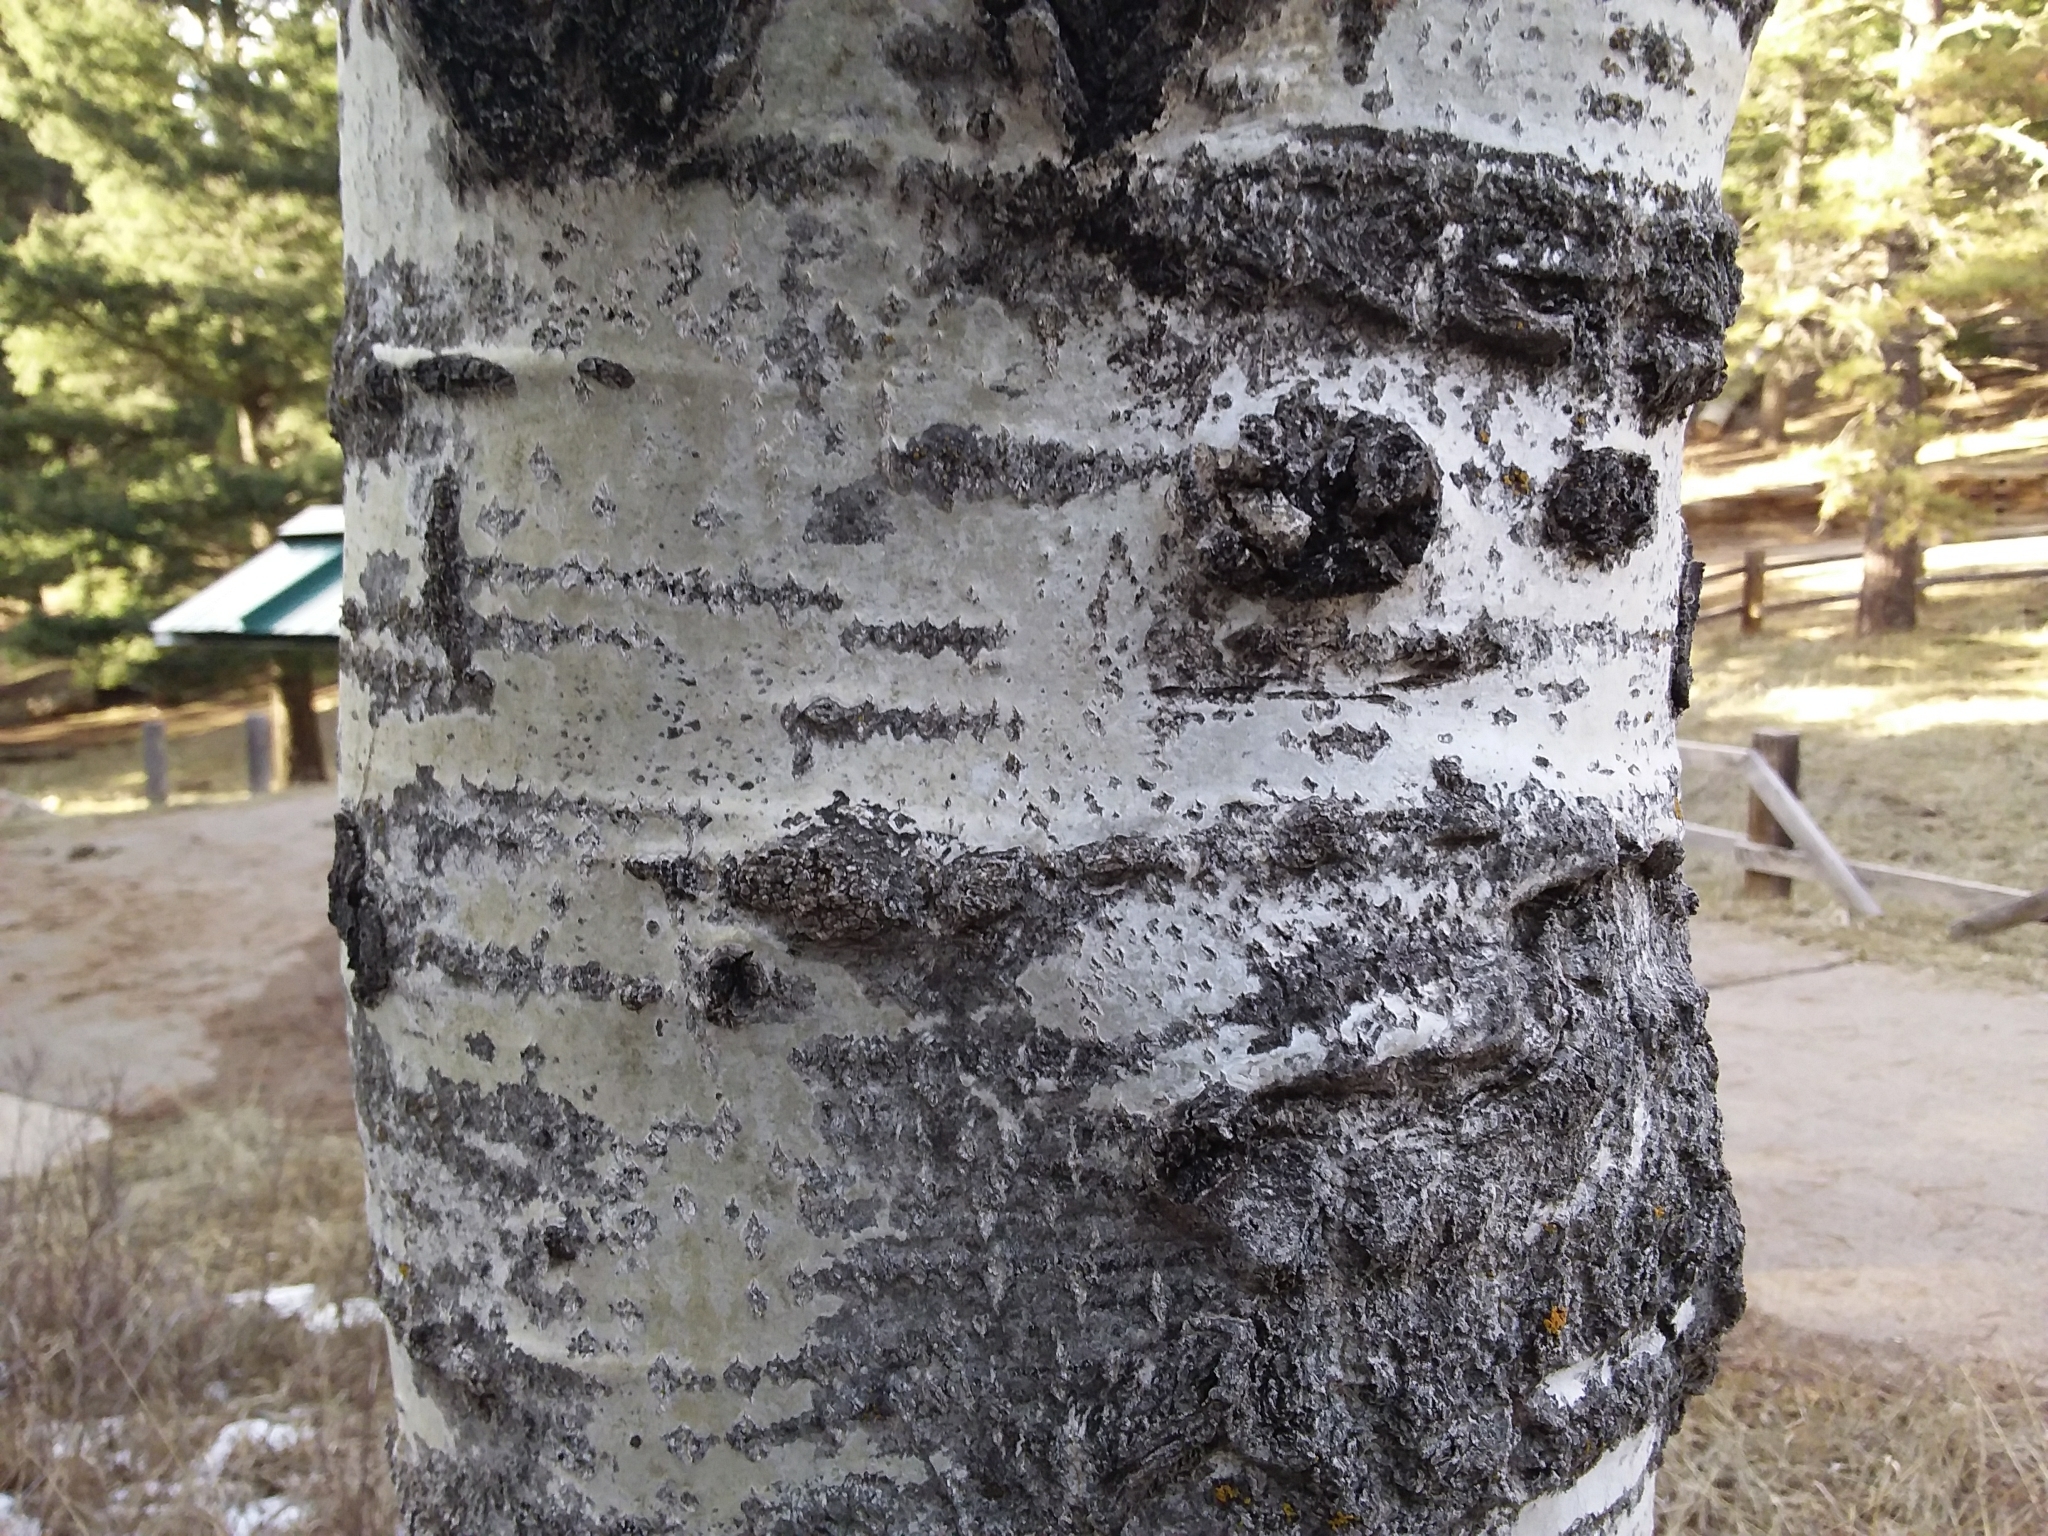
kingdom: Plantae
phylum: Tracheophyta
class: Magnoliopsida
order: Malpighiales
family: Salicaceae
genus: Populus
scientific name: Populus tremuloides
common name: Quaking aspen
